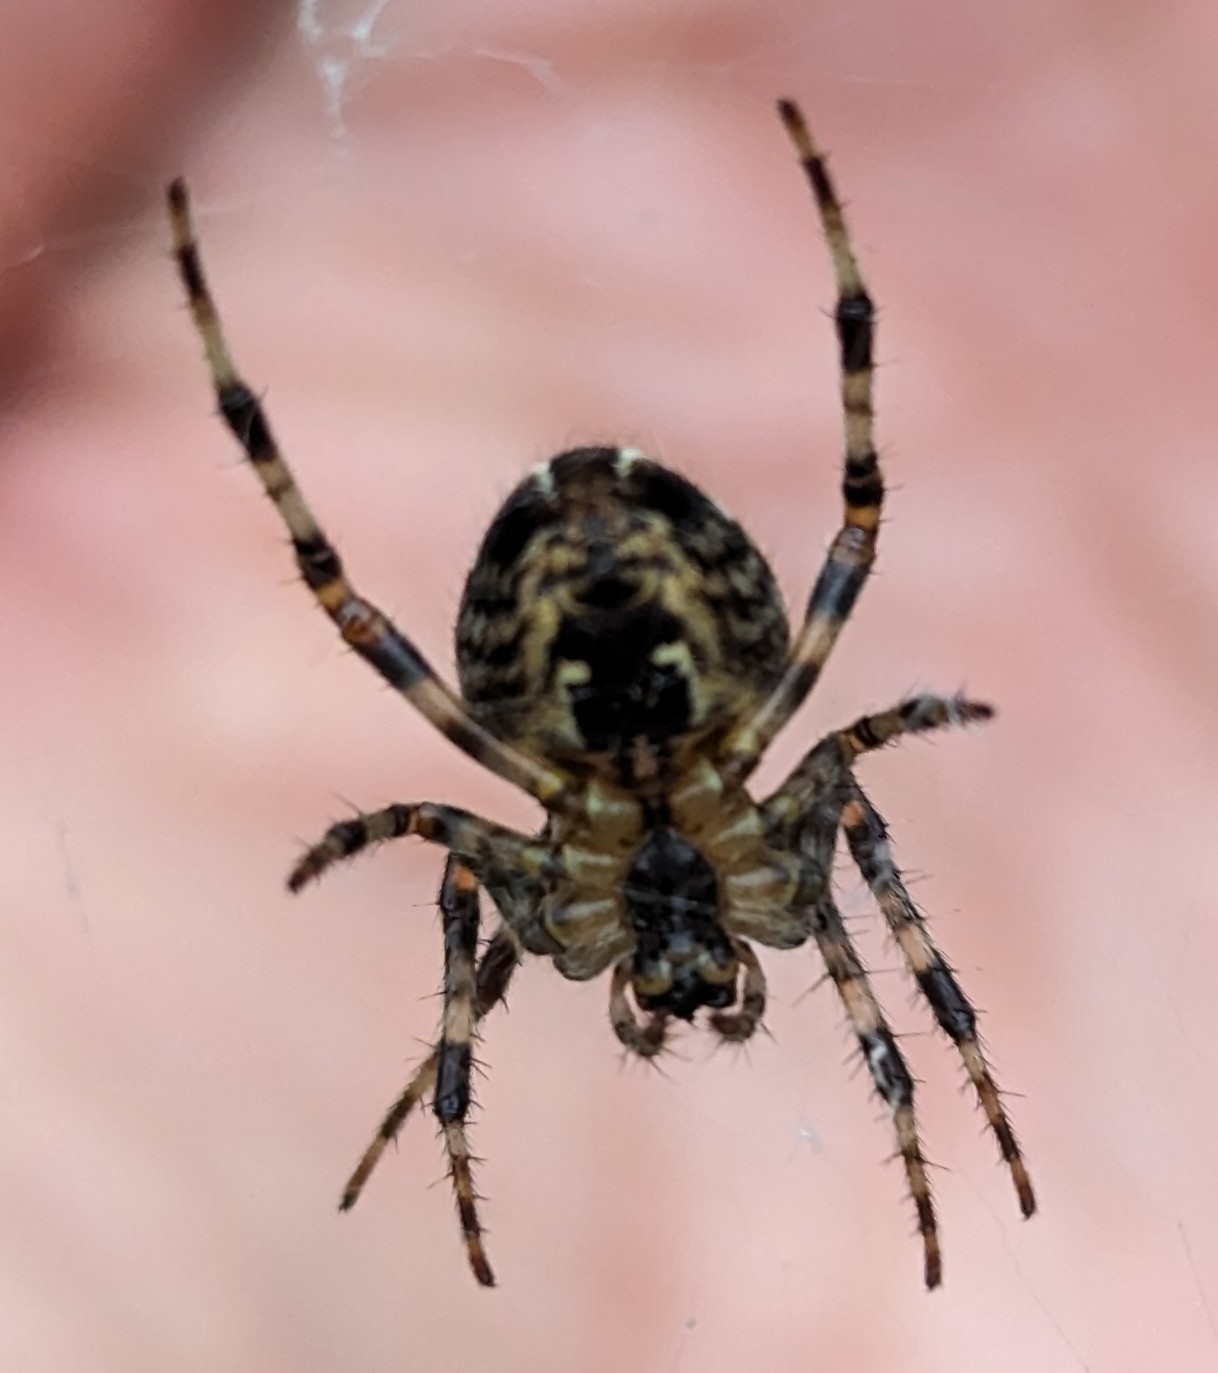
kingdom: Animalia
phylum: Arthropoda
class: Arachnida
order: Araneae
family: Araneidae
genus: Araneus
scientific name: Araneus diadematus
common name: Cross orbweaver
